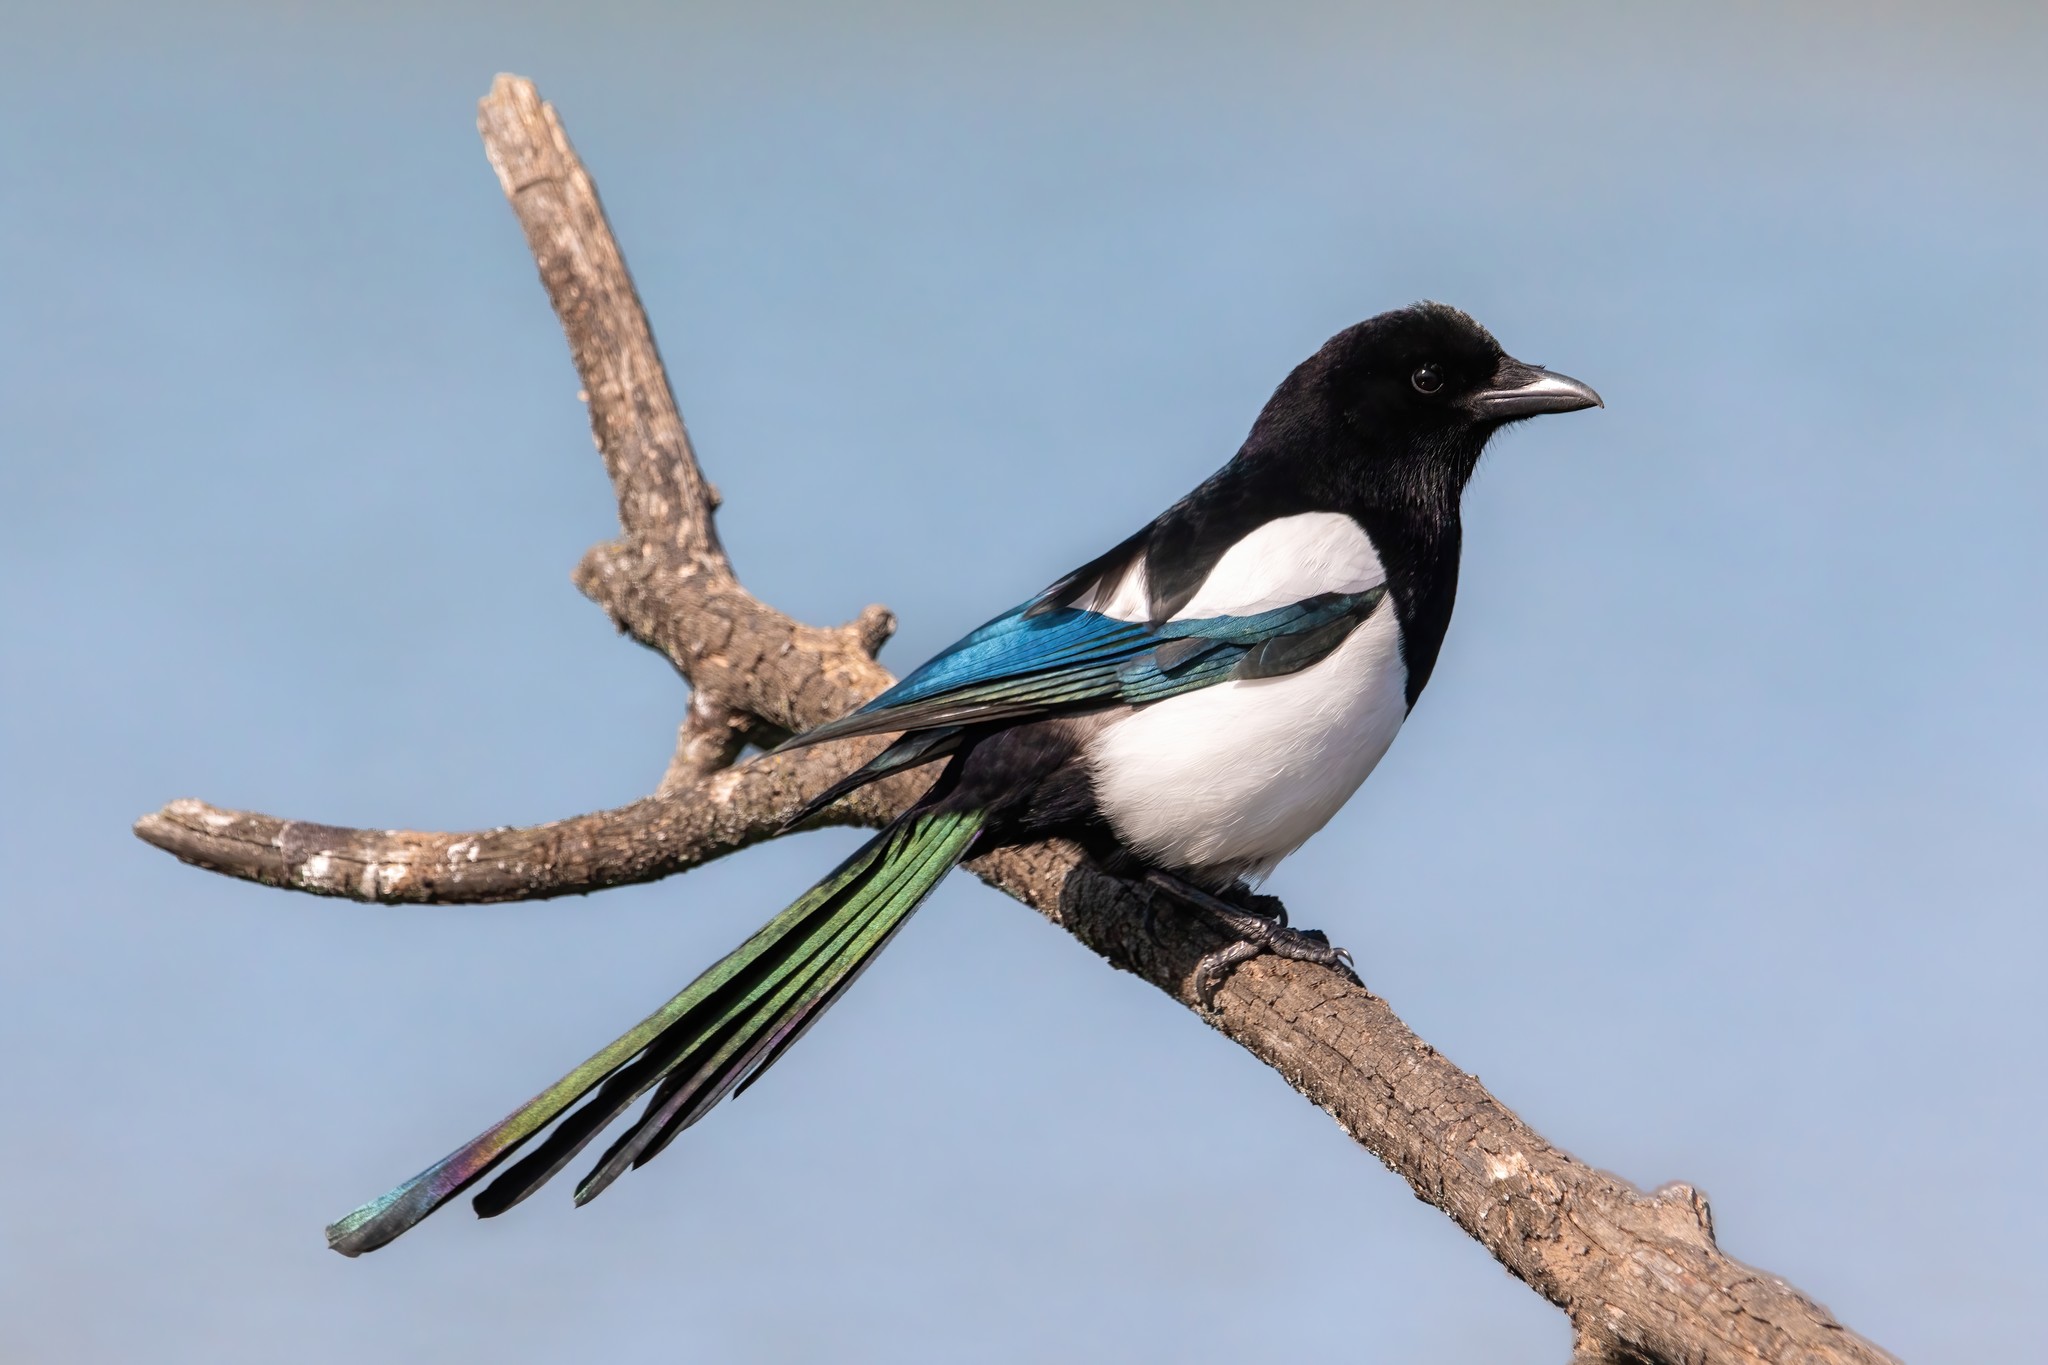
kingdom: Animalia
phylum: Chordata
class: Aves
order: Passeriformes
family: Corvidae
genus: Pica
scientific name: Pica pica
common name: Eurasian magpie
